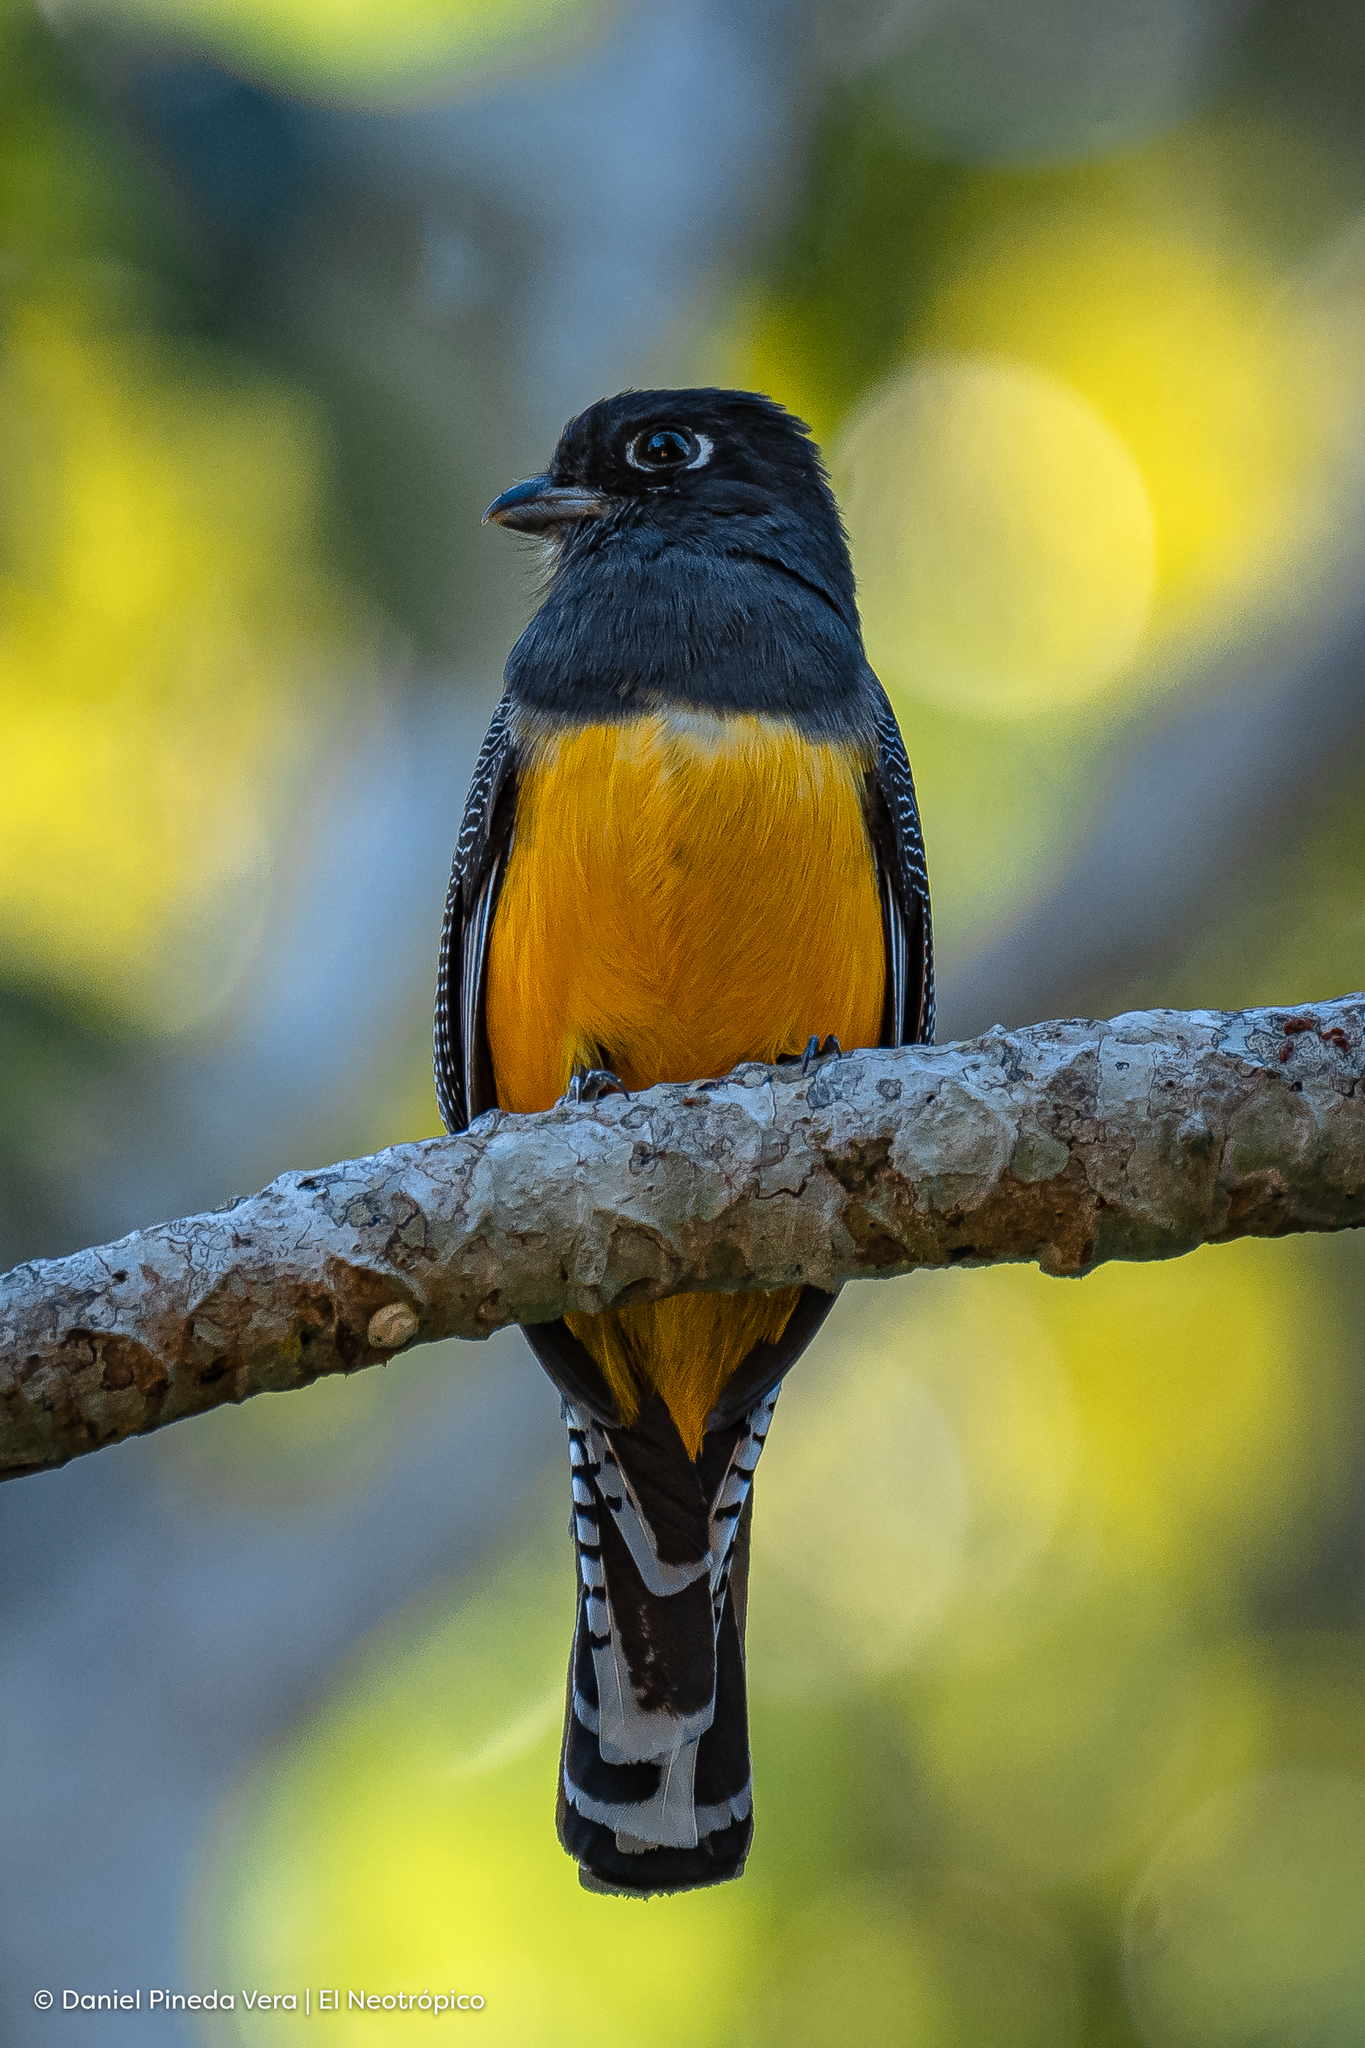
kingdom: Animalia
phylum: Chordata
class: Aves
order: Trogoniformes
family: Trogonidae
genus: Trogon
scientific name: Trogon caligatus
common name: Gartered trogon
